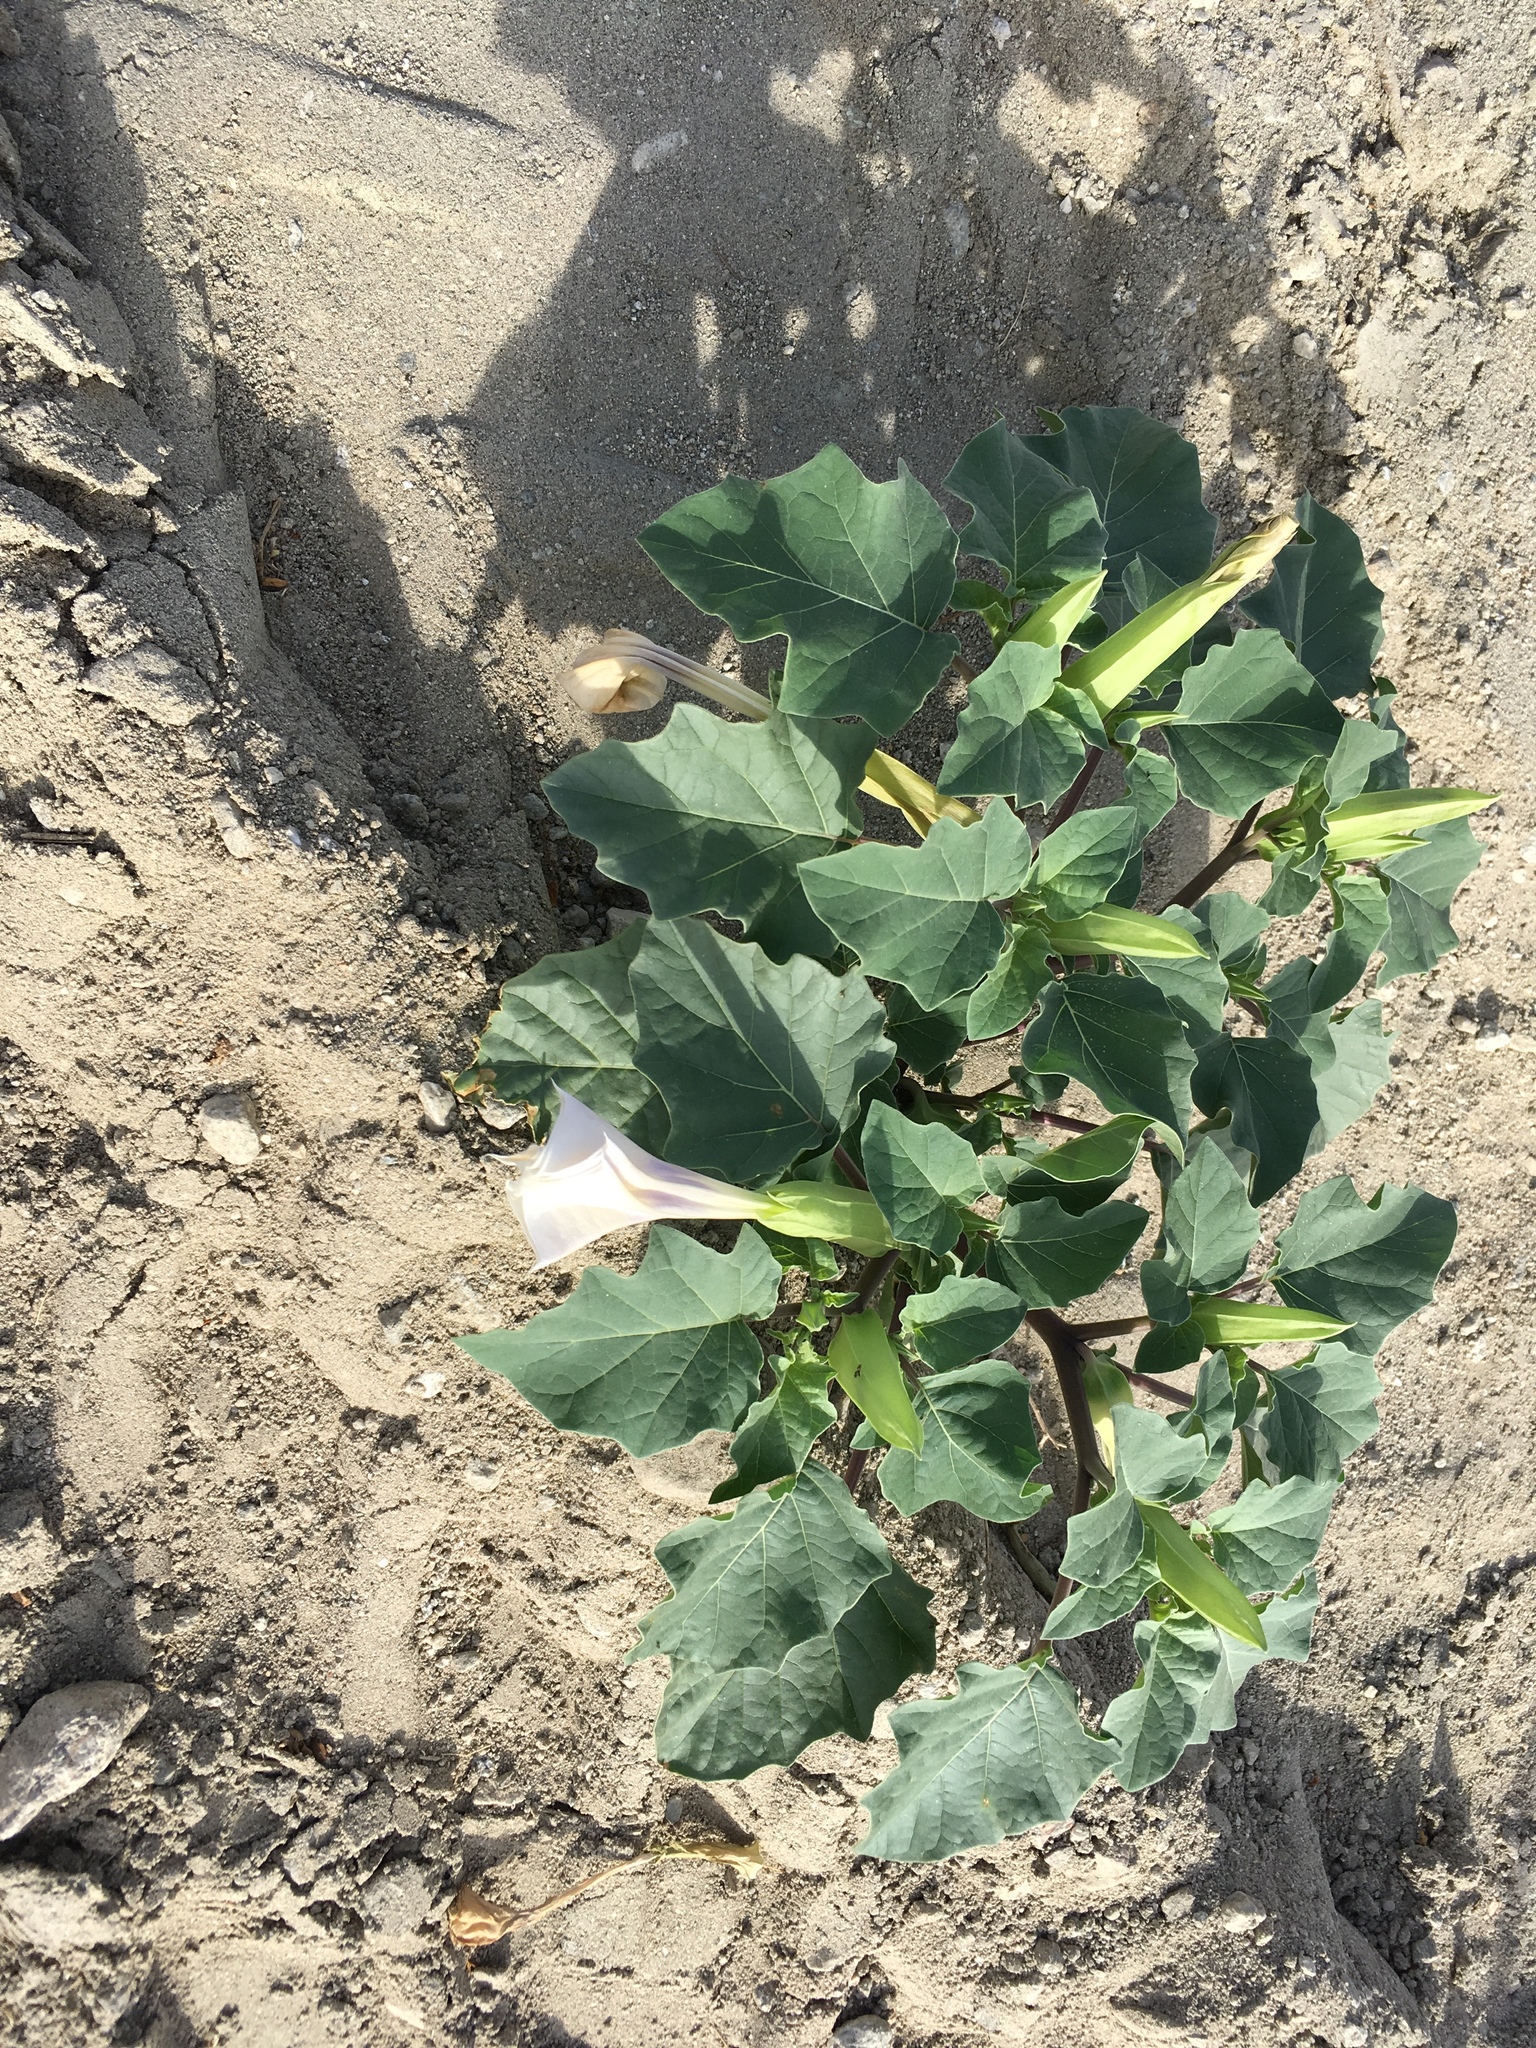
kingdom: Plantae
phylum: Tracheophyta
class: Magnoliopsida
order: Solanales
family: Solanaceae
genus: Datura
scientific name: Datura discolor
